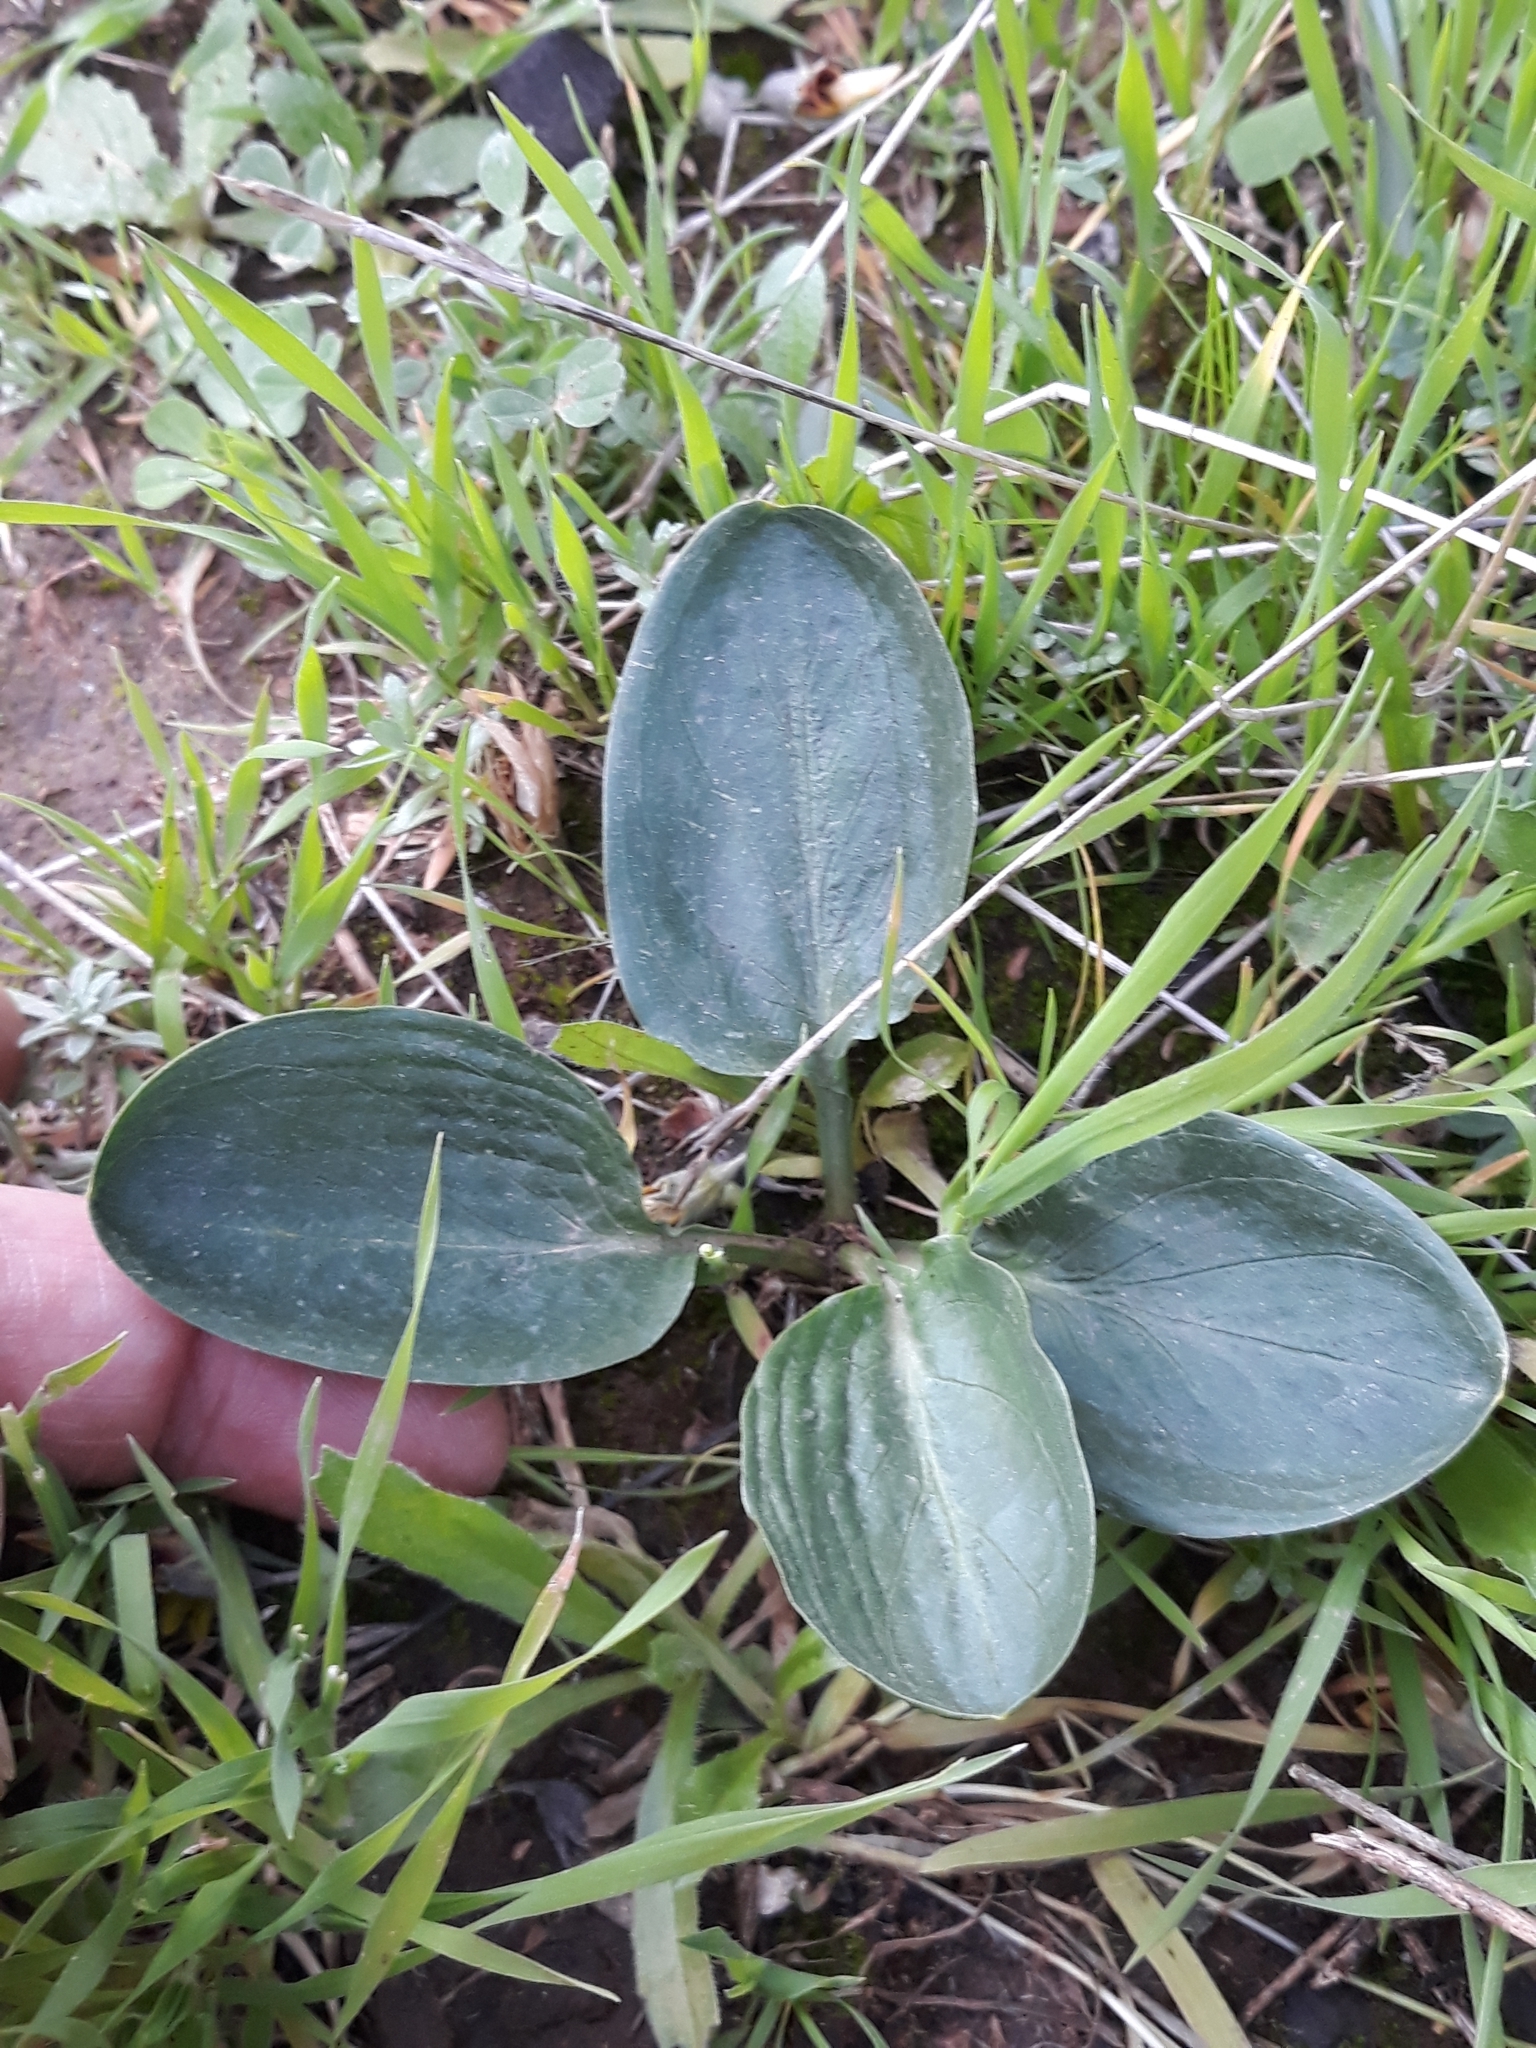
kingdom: Plantae
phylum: Tracheophyta
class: Liliopsida
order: Alismatales
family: Araceae
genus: Ambrosina
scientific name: Ambrosina bassii
